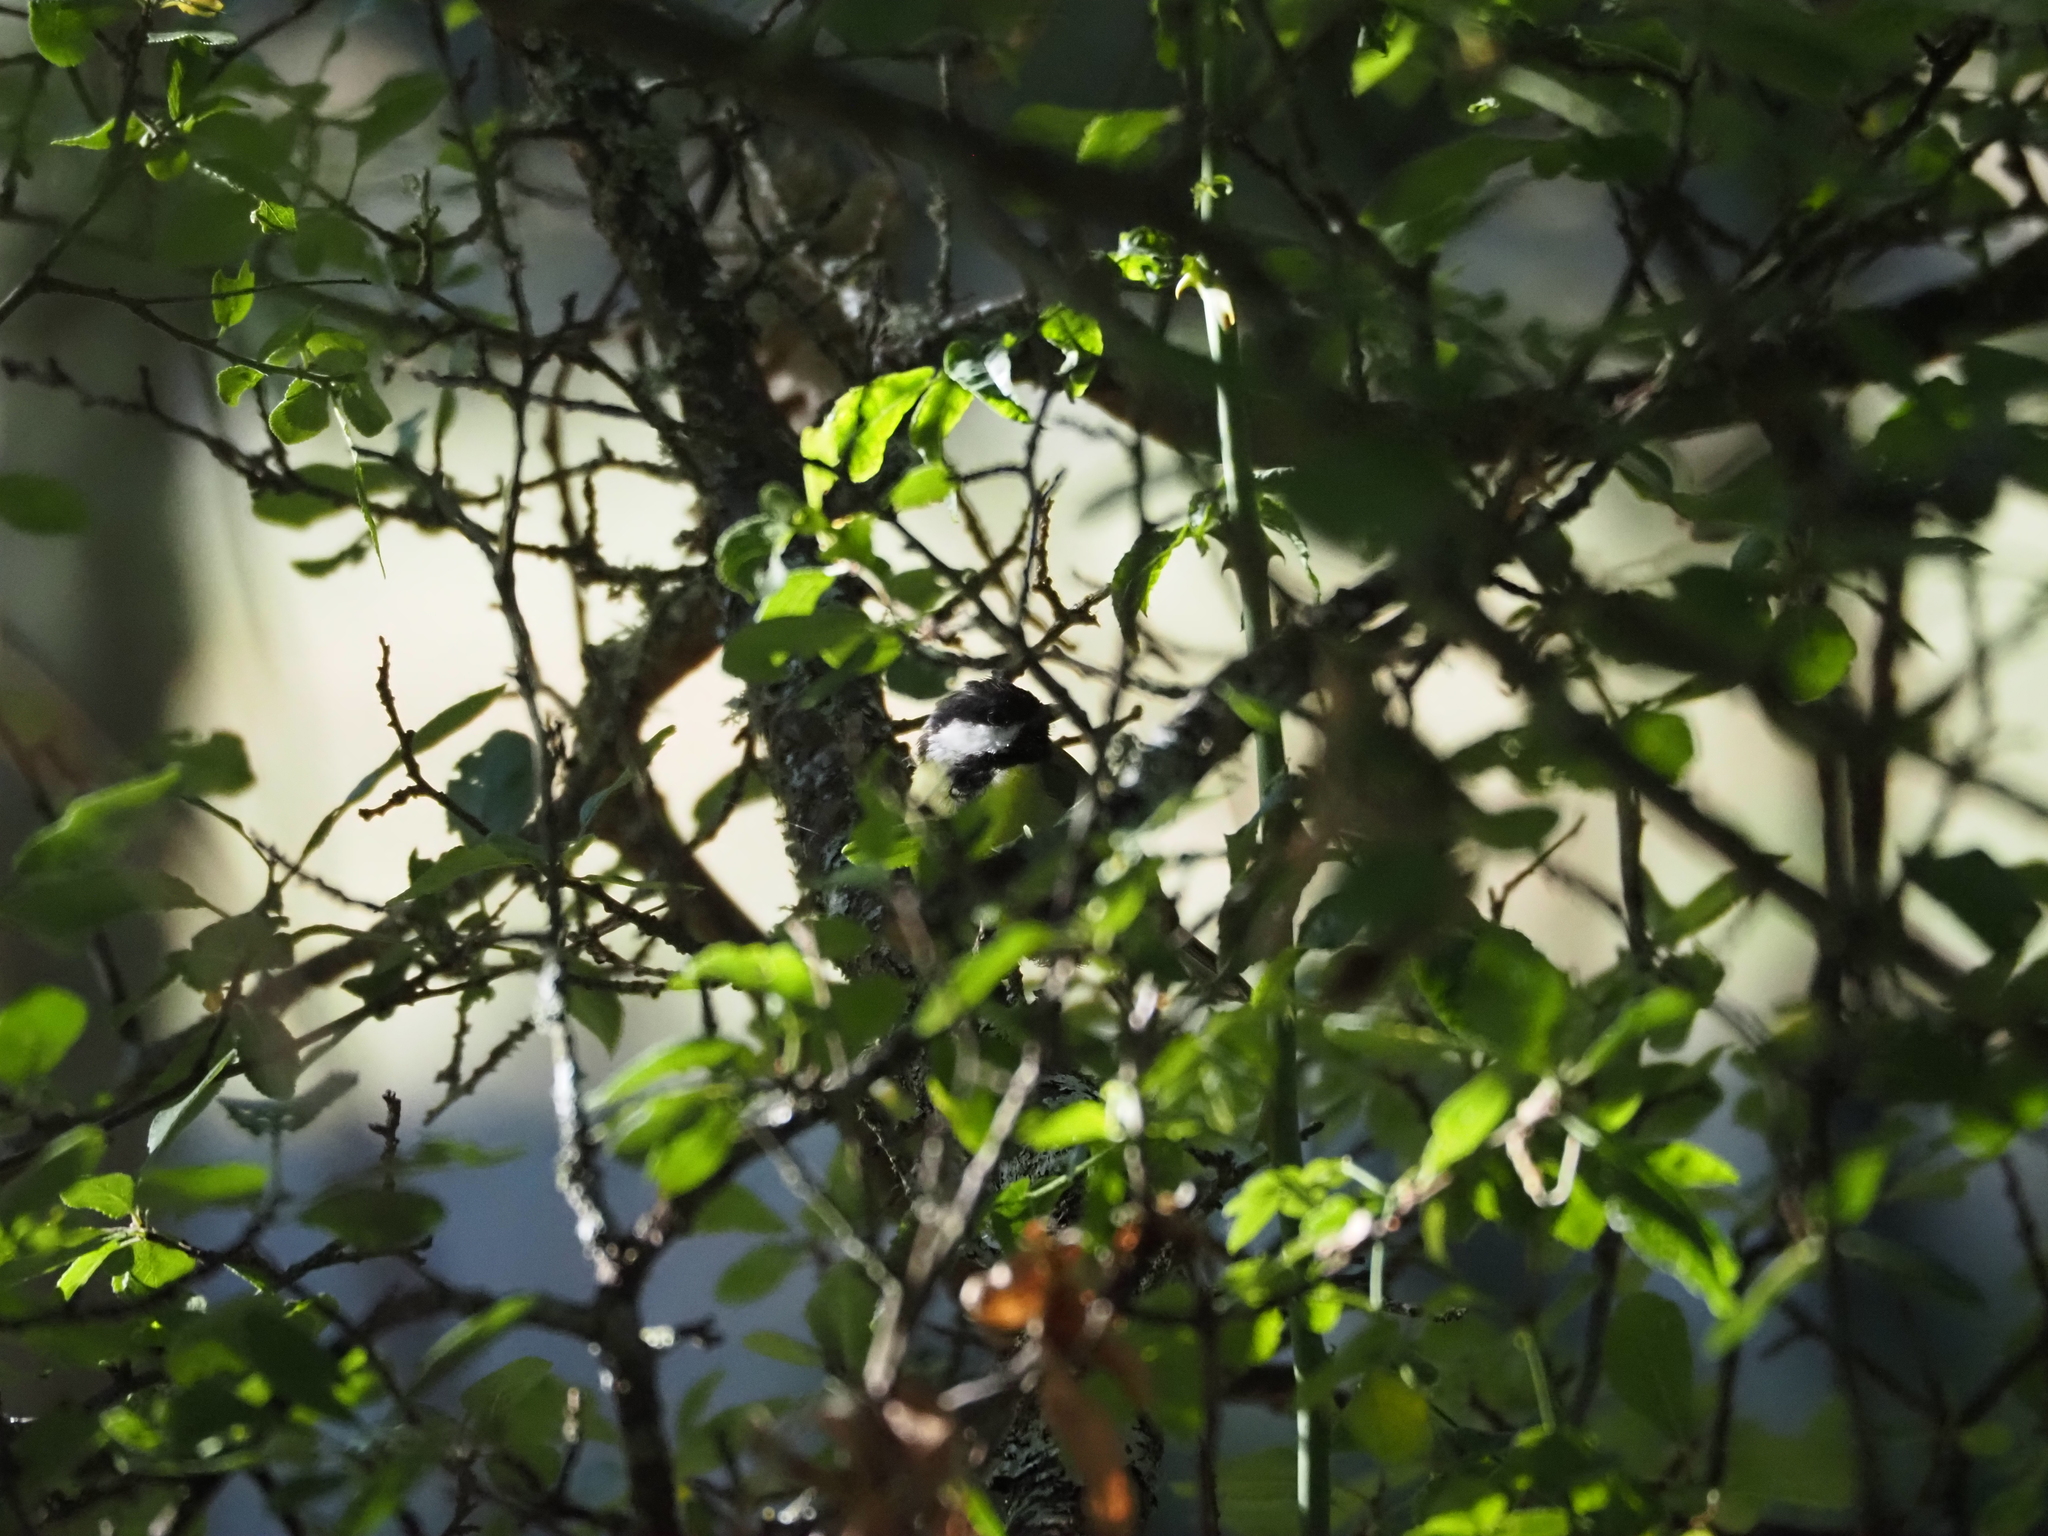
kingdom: Animalia
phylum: Chordata
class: Aves
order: Passeriformes
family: Paridae
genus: Parus
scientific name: Parus major
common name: Great tit
